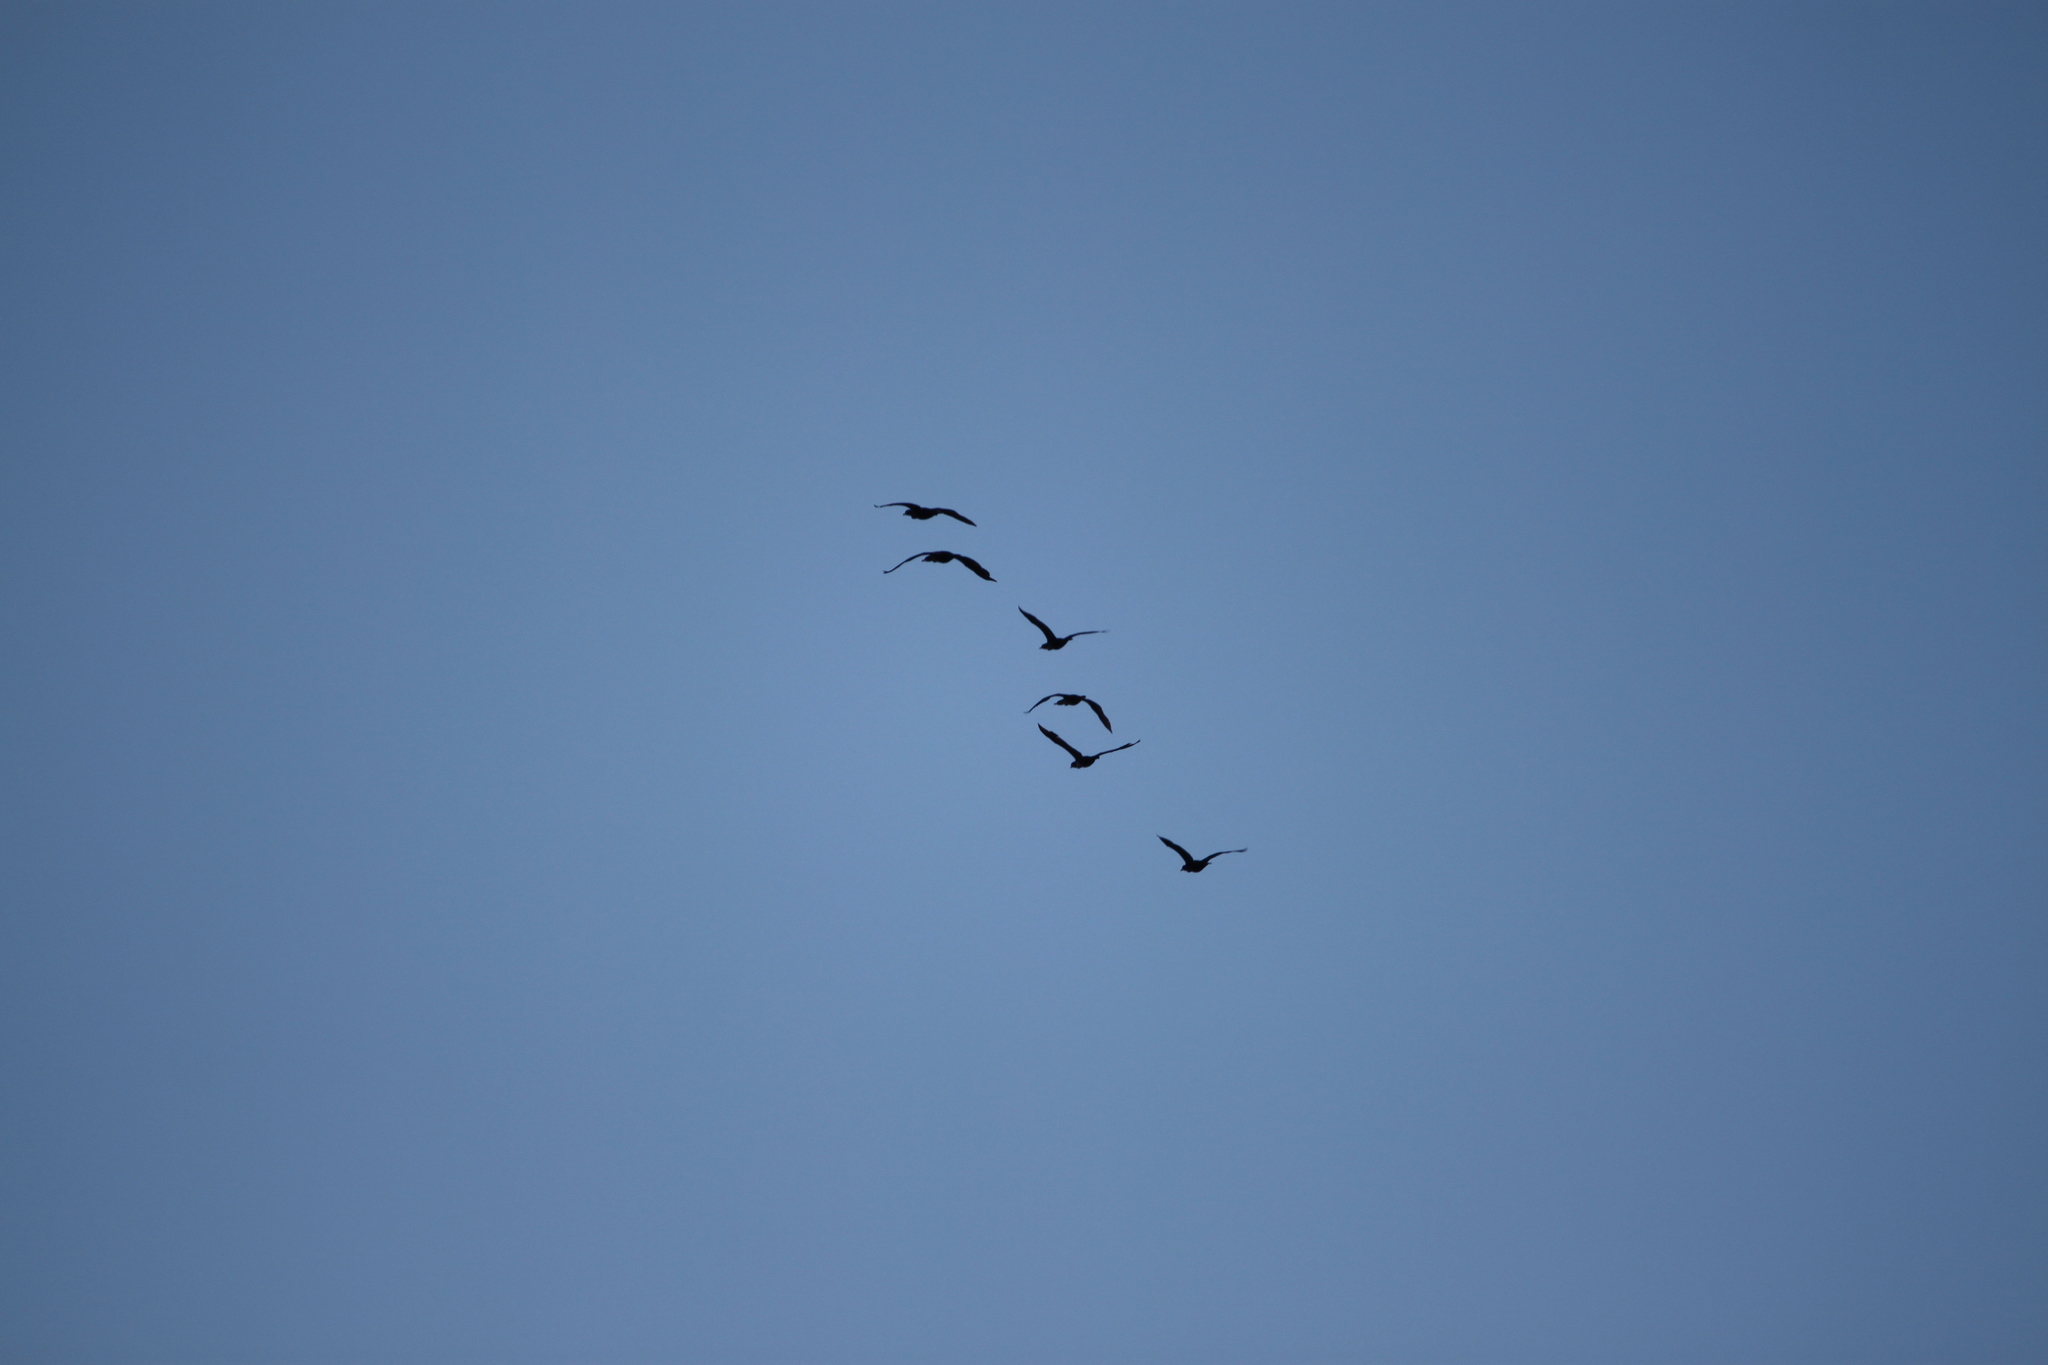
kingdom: Animalia
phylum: Chordata
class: Aves
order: Suliformes
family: Phalacrocoracidae
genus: Phalacrocorax
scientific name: Phalacrocorax auritus
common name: Double-crested cormorant
